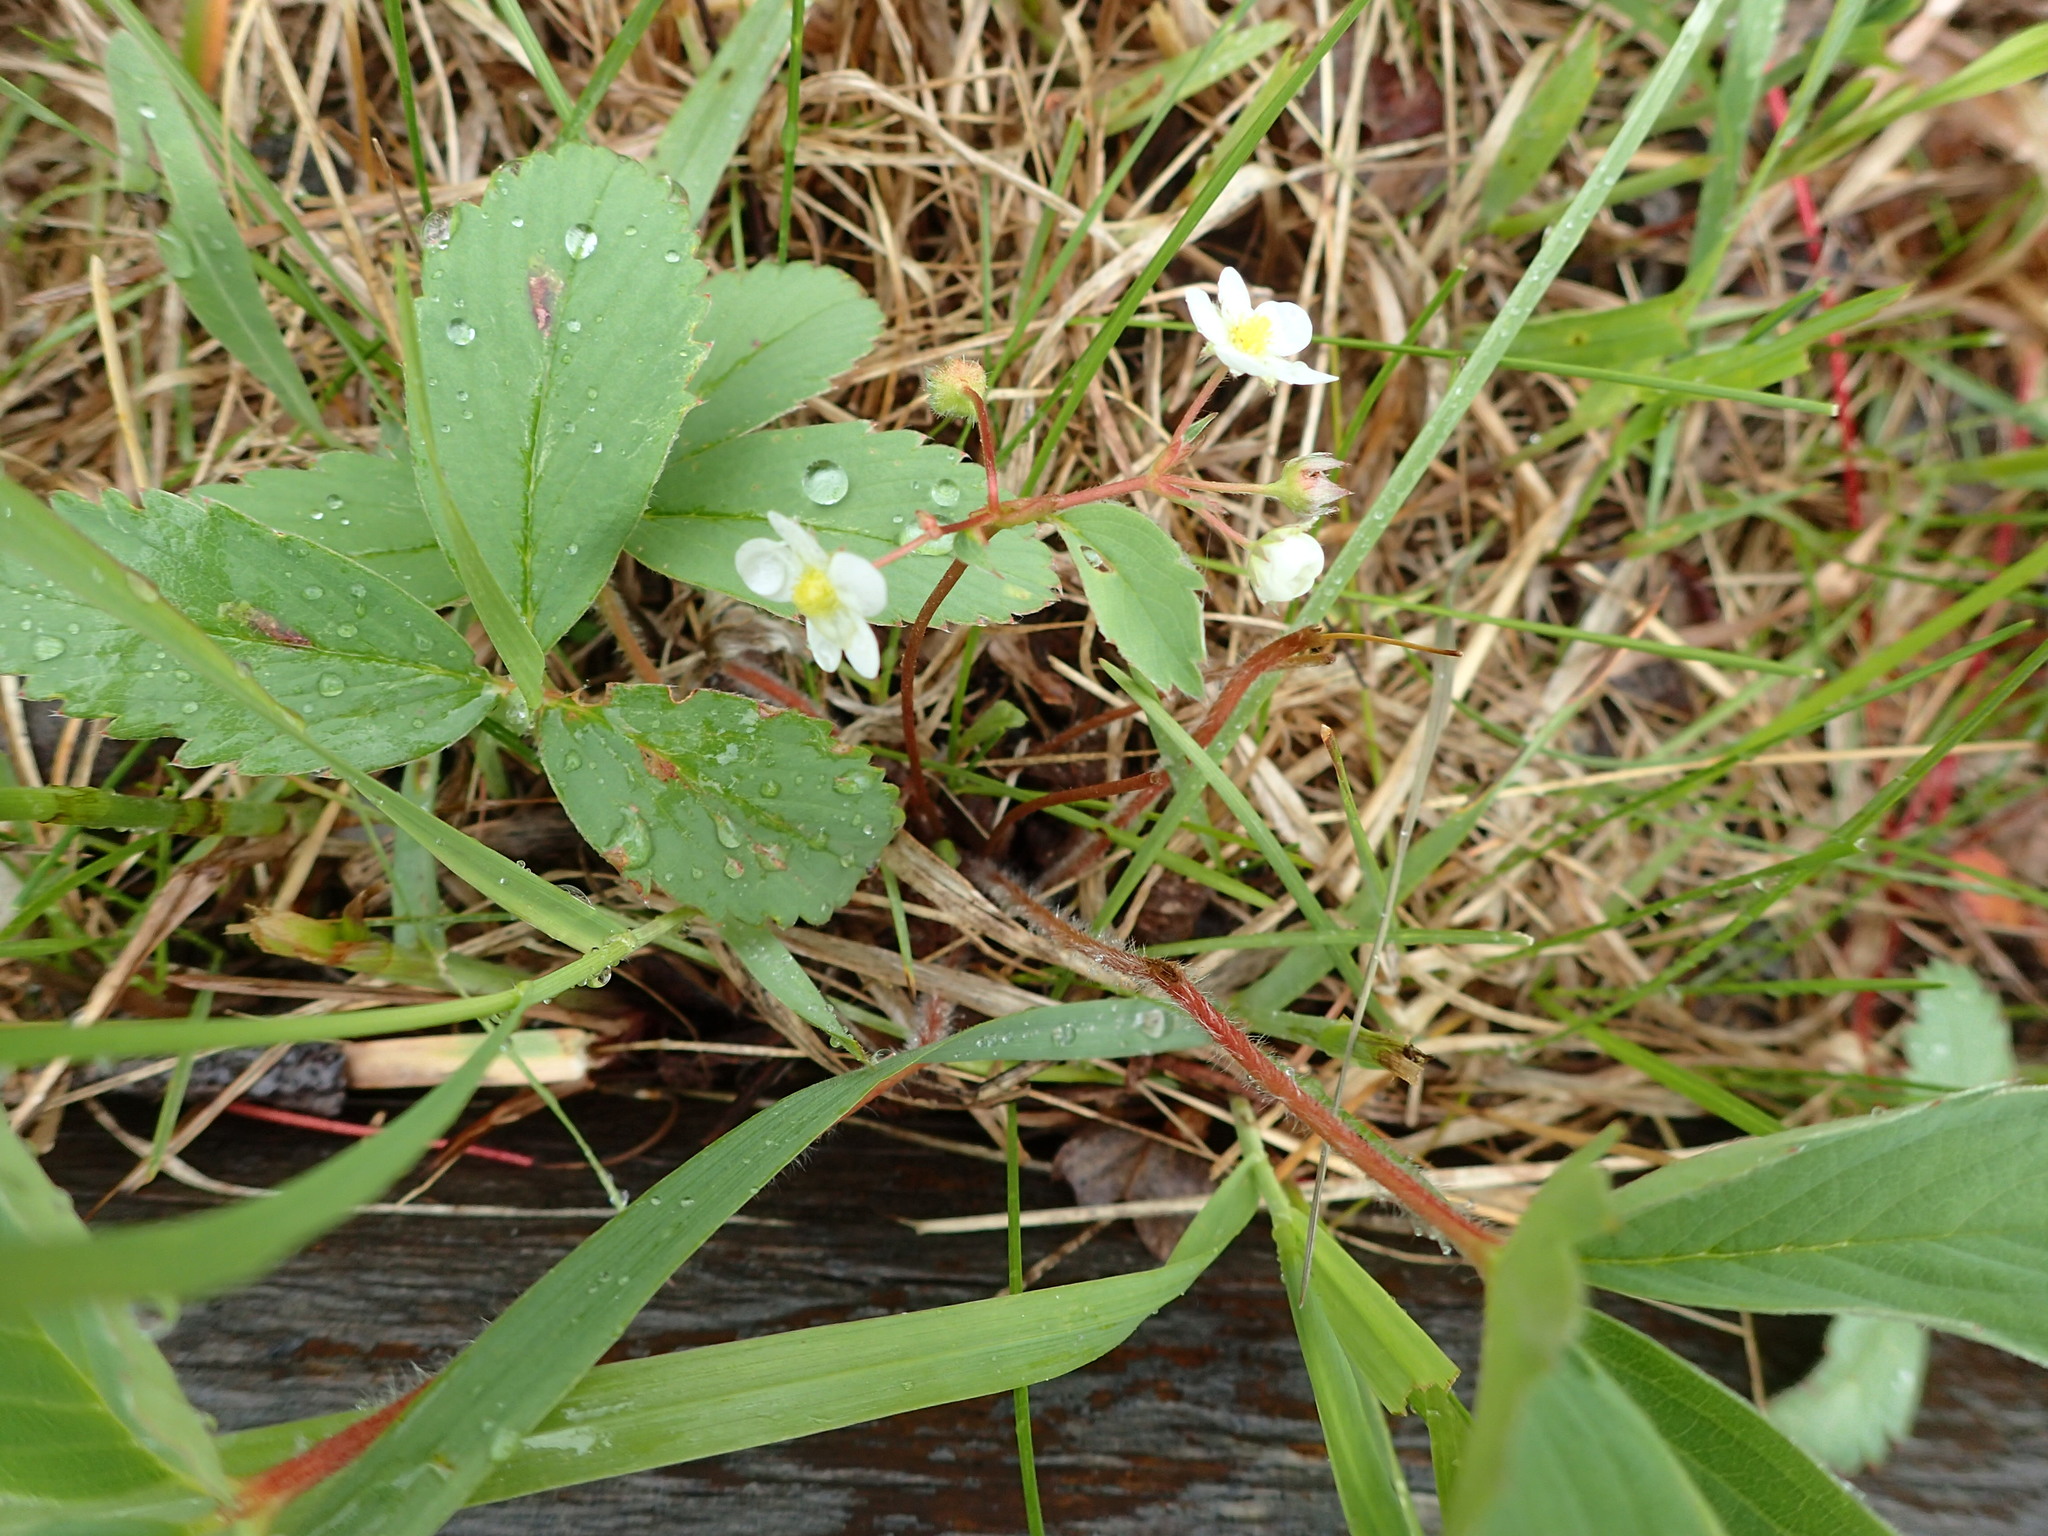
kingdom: Plantae
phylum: Tracheophyta
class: Magnoliopsida
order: Rosales
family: Rosaceae
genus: Fragaria
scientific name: Fragaria virginiana
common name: Thickleaved wild strawberry
